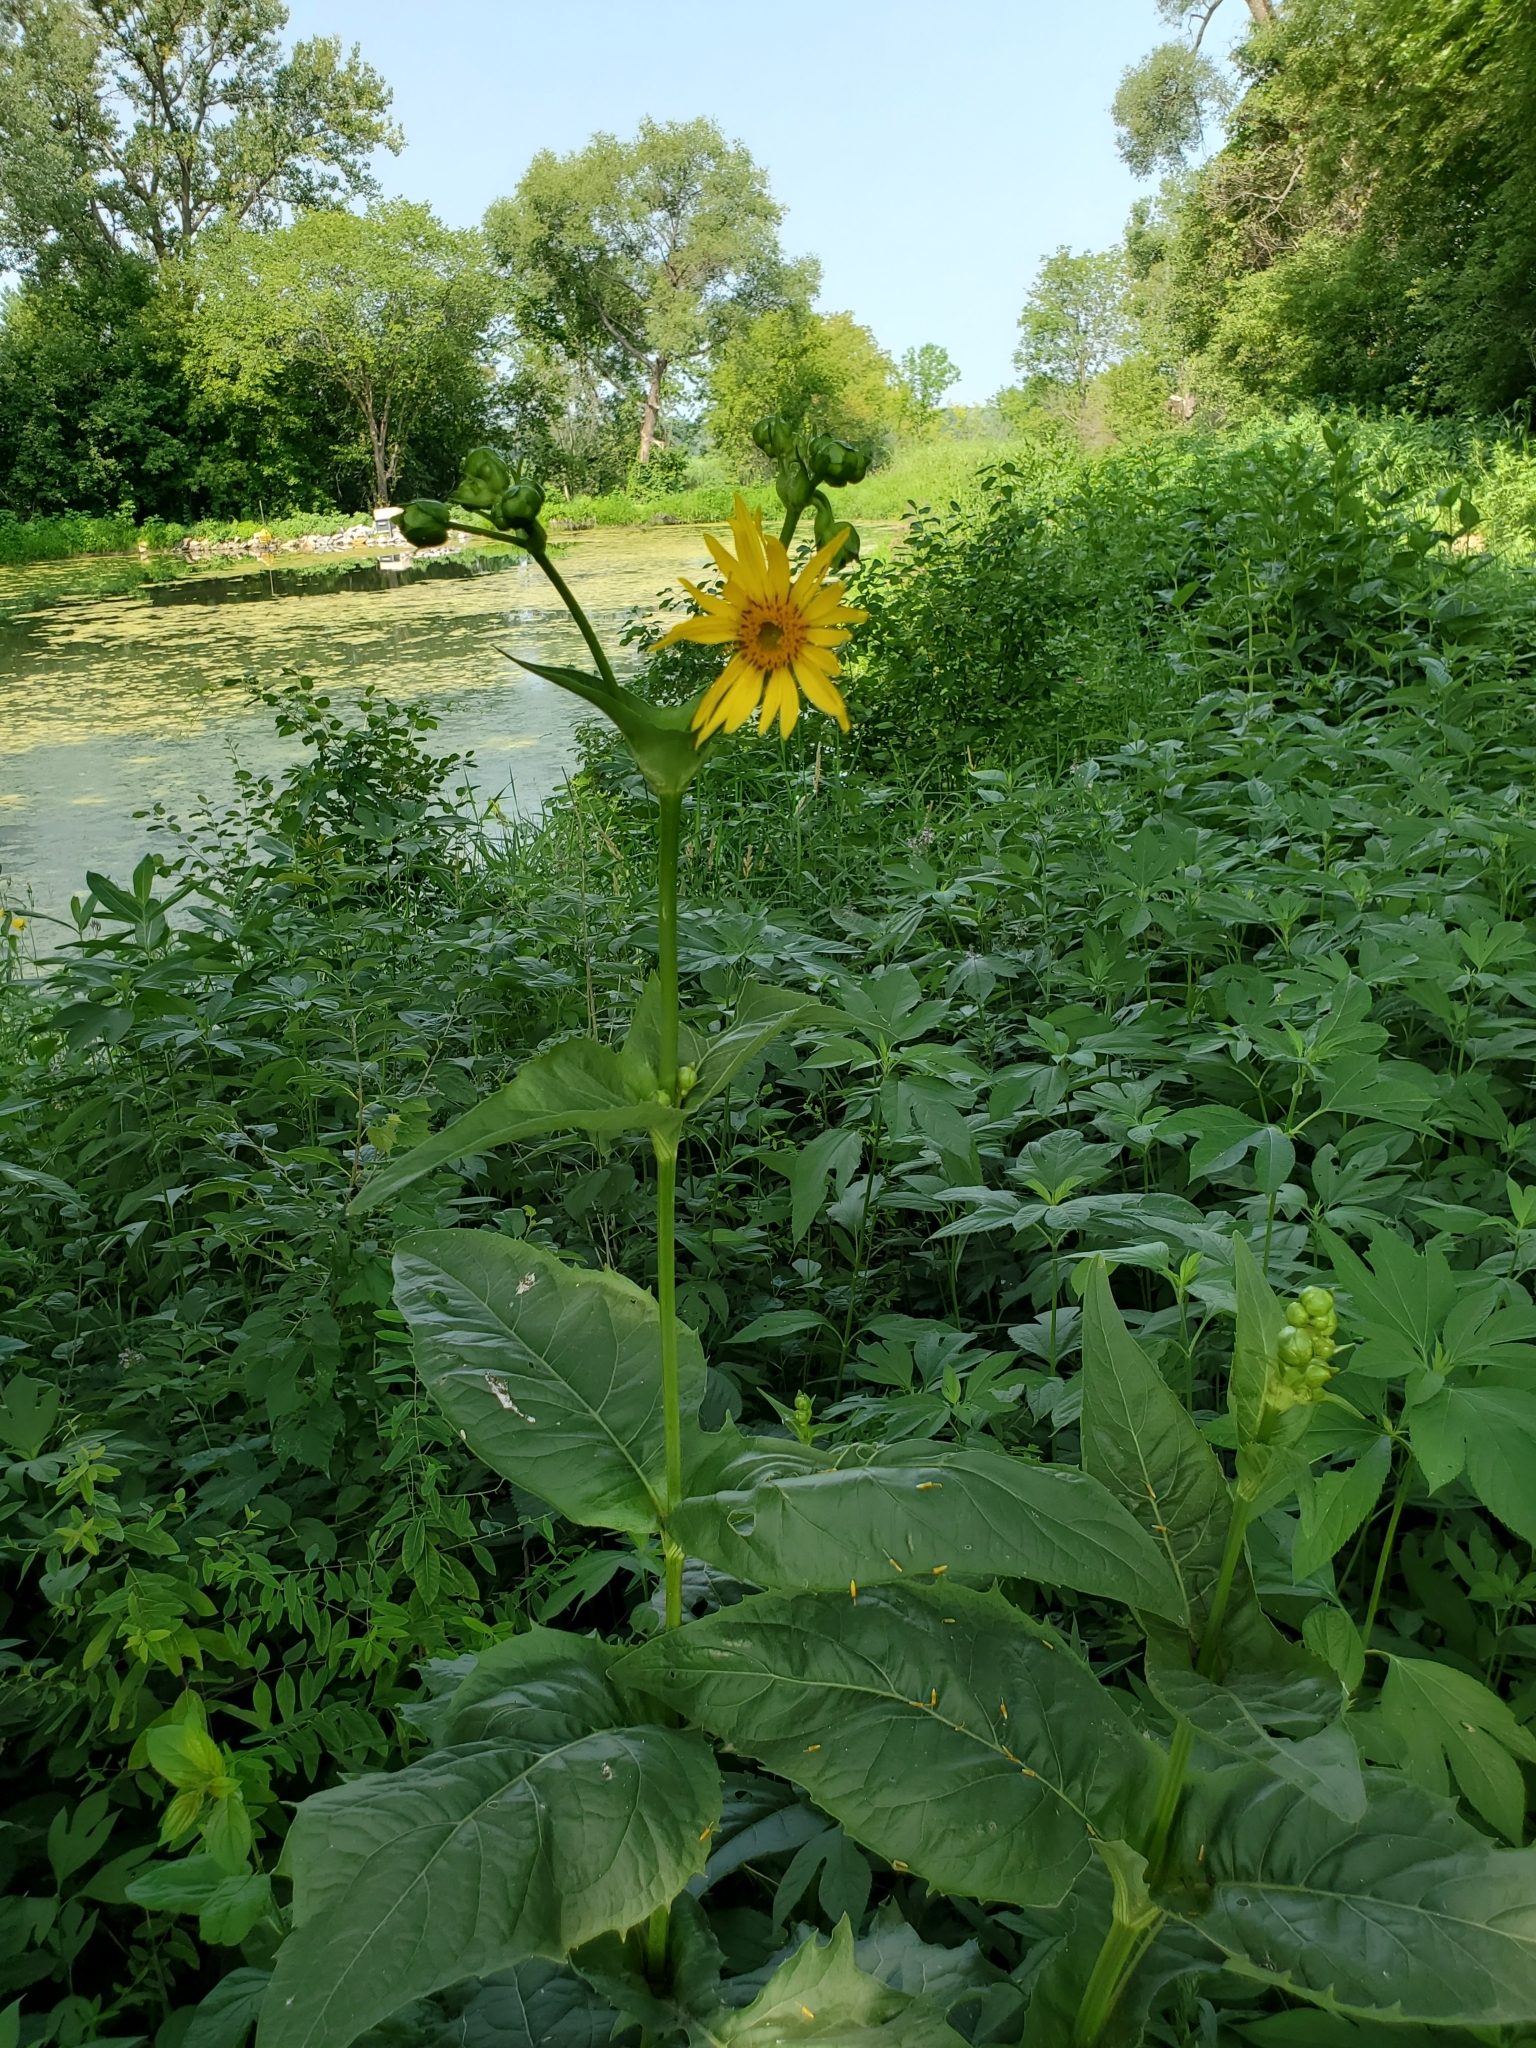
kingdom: Plantae
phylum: Tracheophyta
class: Magnoliopsida
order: Asterales
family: Asteraceae
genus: Silphium
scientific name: Silphium perfoliatum
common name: Cup-plant
